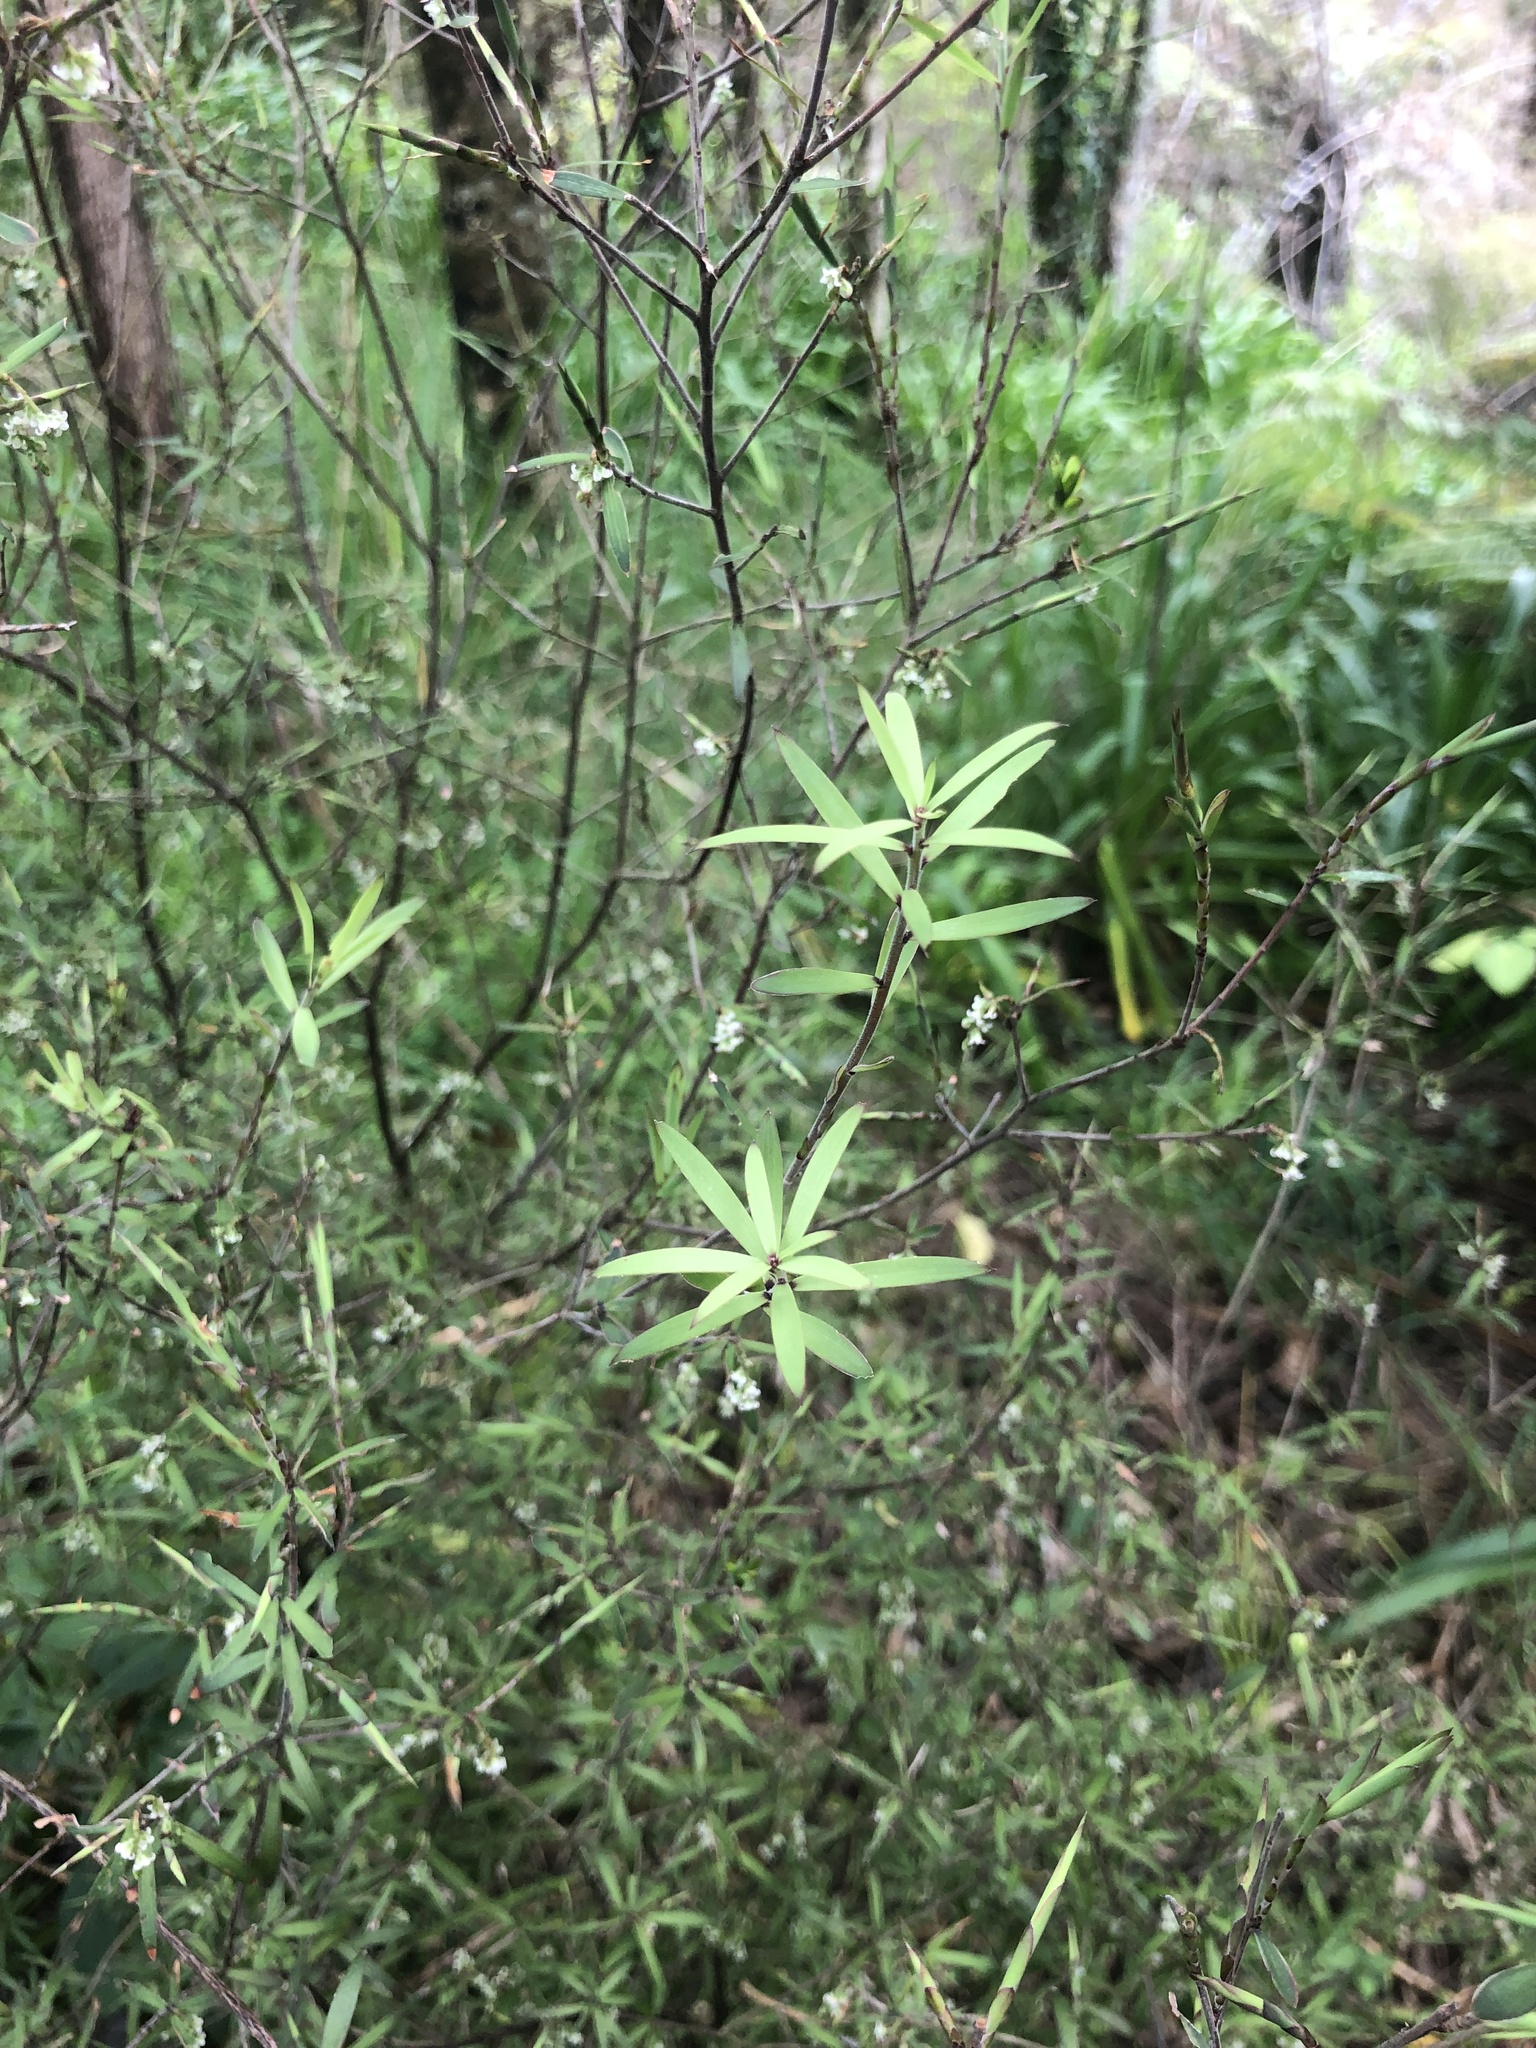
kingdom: Plantae
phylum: Tracheophyta
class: Magnoliopsida
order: Ericales
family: Ericaceae
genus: Leucopogon
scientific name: Leucopogon fasciculatus
